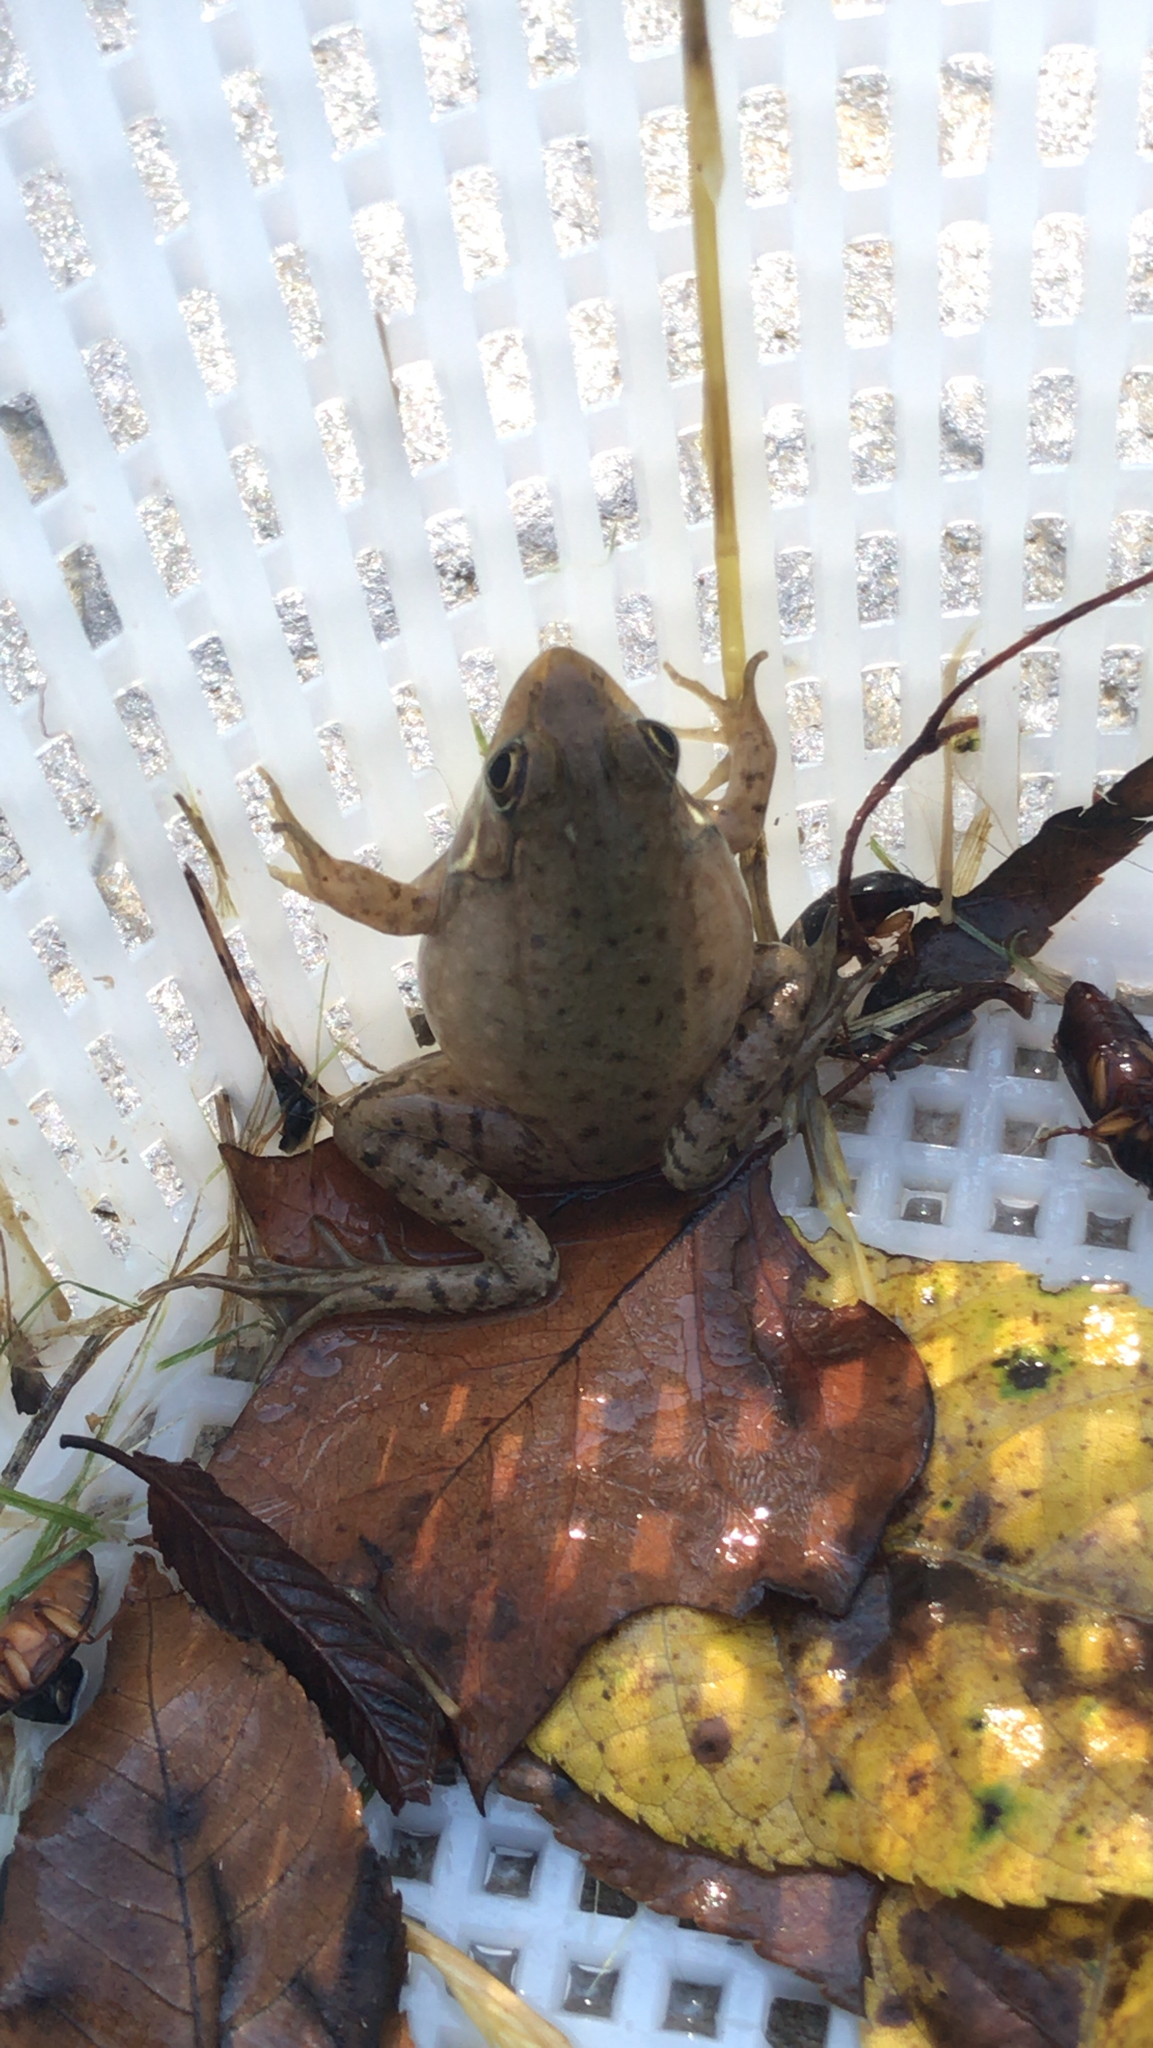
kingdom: Animalia
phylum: Chordata
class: Amphibia
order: Anura
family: Ranidae
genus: Lithobates
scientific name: Lithobates clamitans
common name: Green frog
